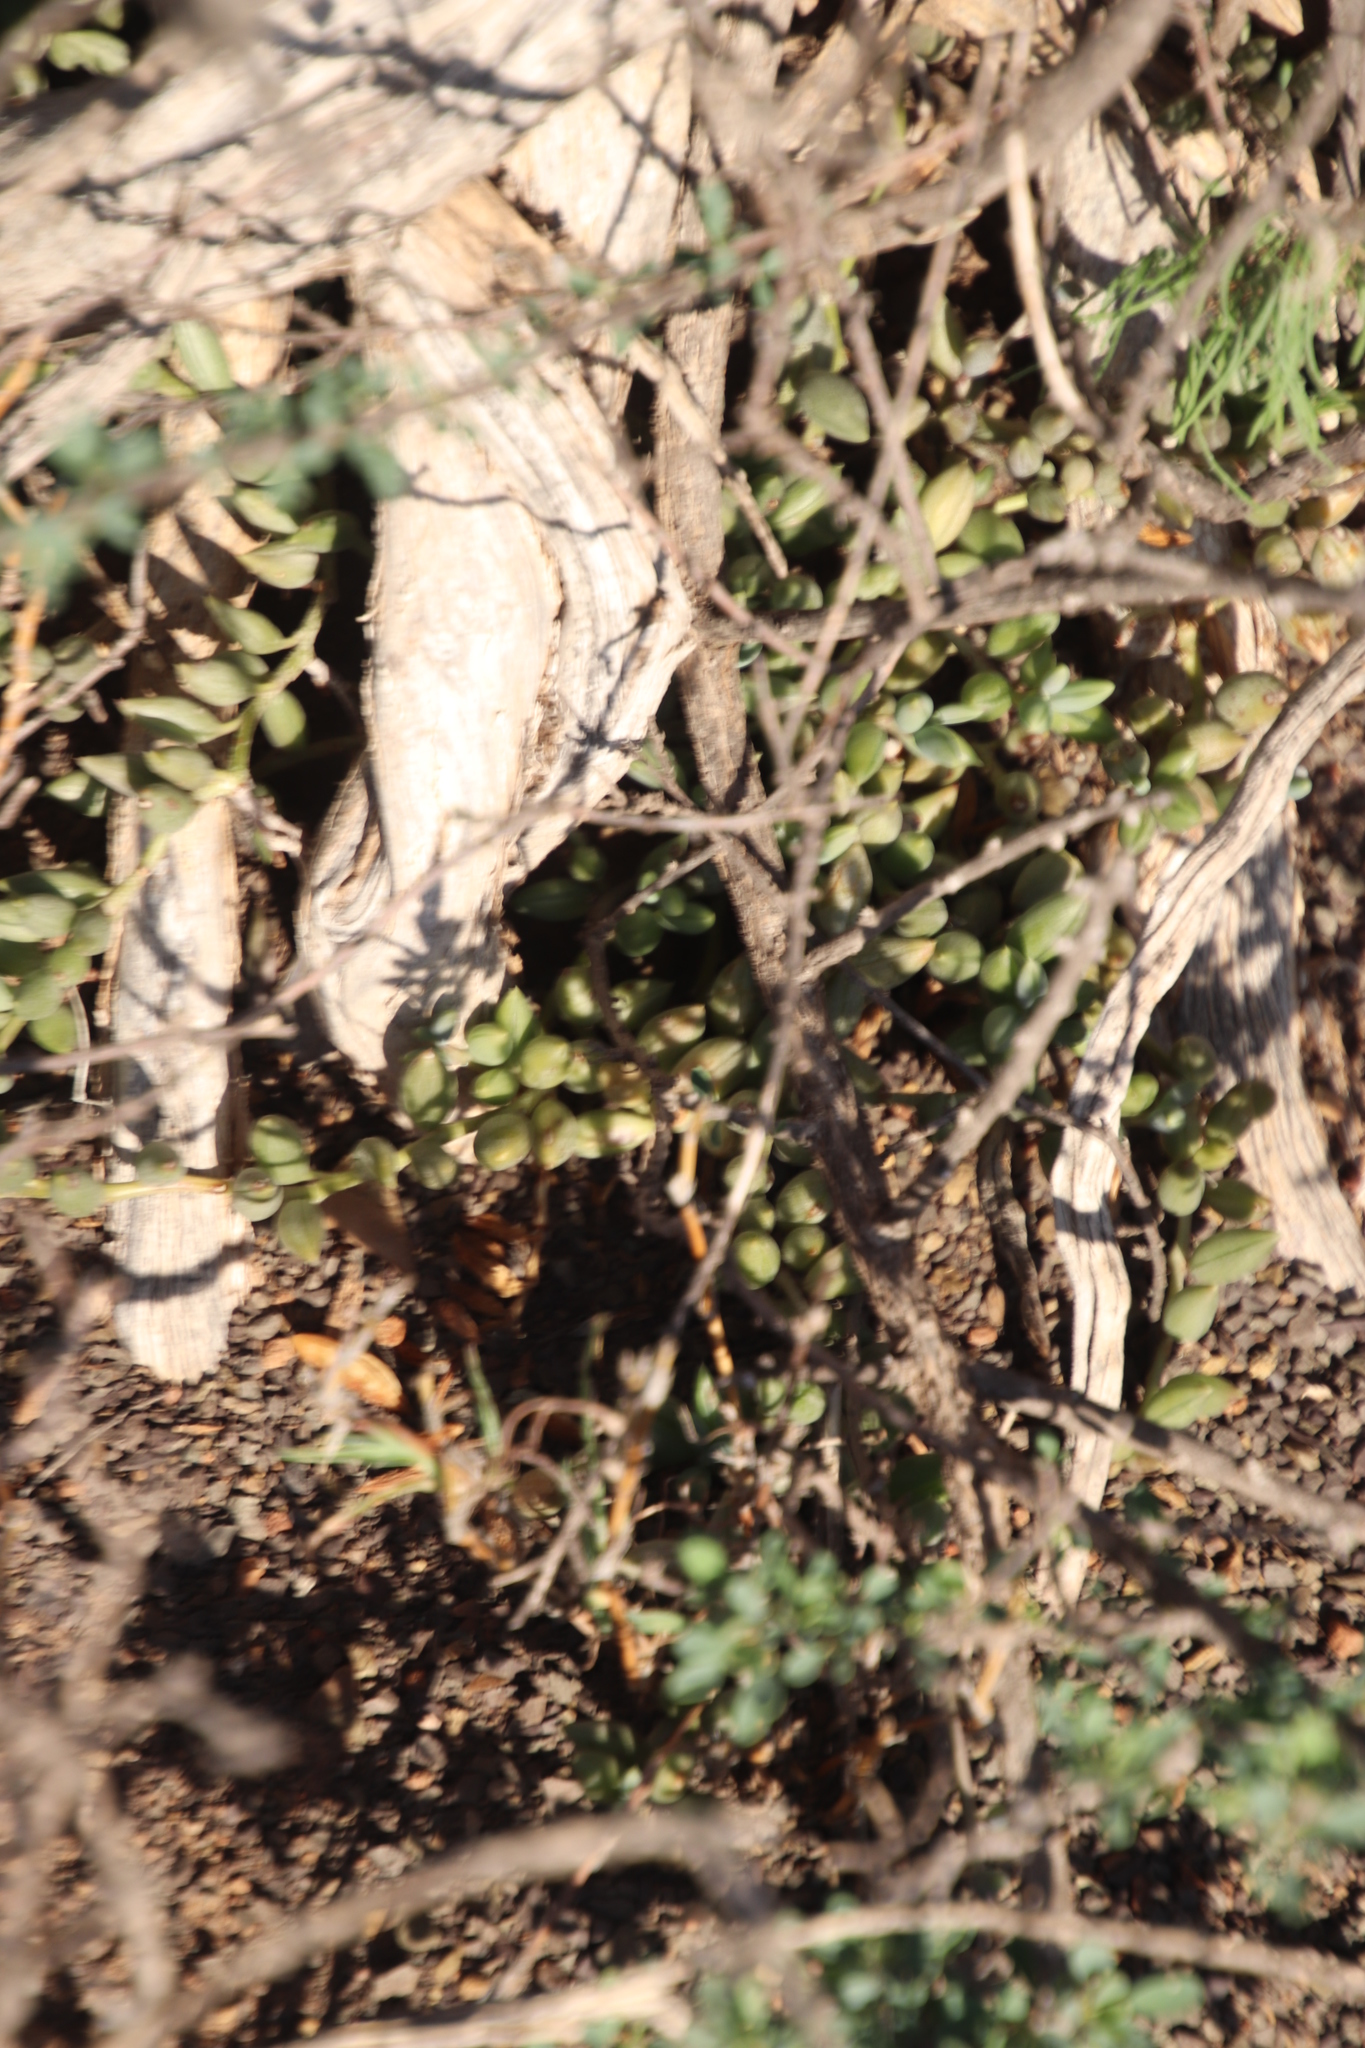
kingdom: Plantae
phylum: Tracheophyta
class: Magnoliopsida
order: Asterales
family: Asteraceae
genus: Curio
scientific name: Curio radicans
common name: Creeping-berry
